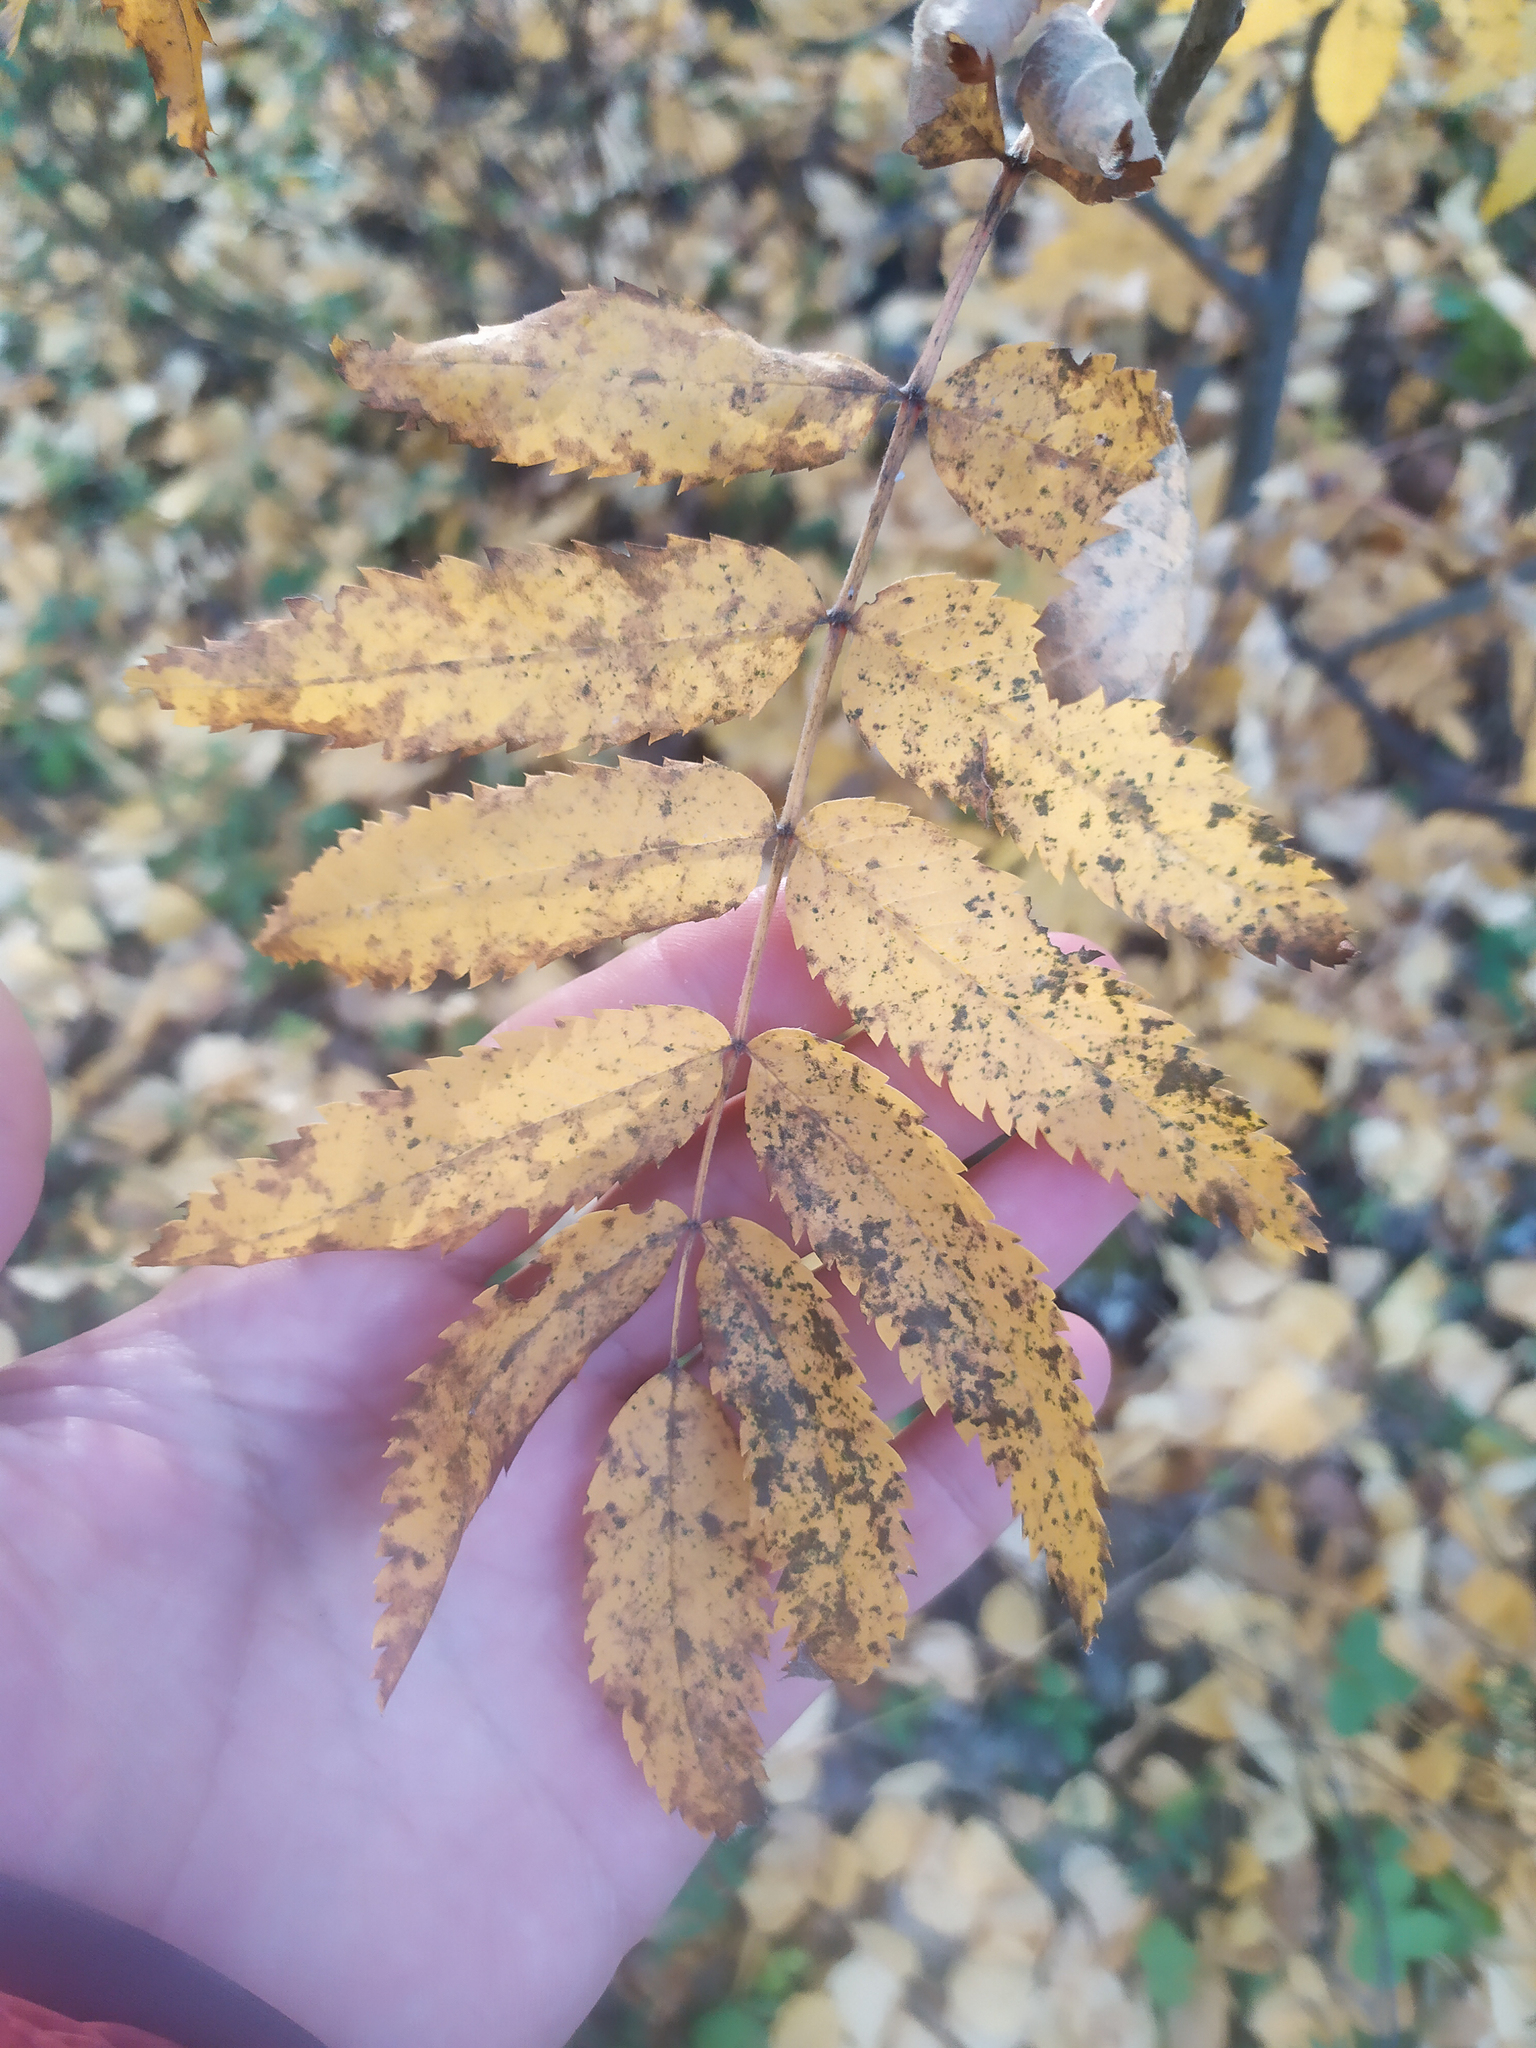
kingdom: Plantae
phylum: Tracheophyta
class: Magnoliopsida
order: Rosales
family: Rosaceae
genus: Sorbus
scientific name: Sorbus aucuparia
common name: Rowan
